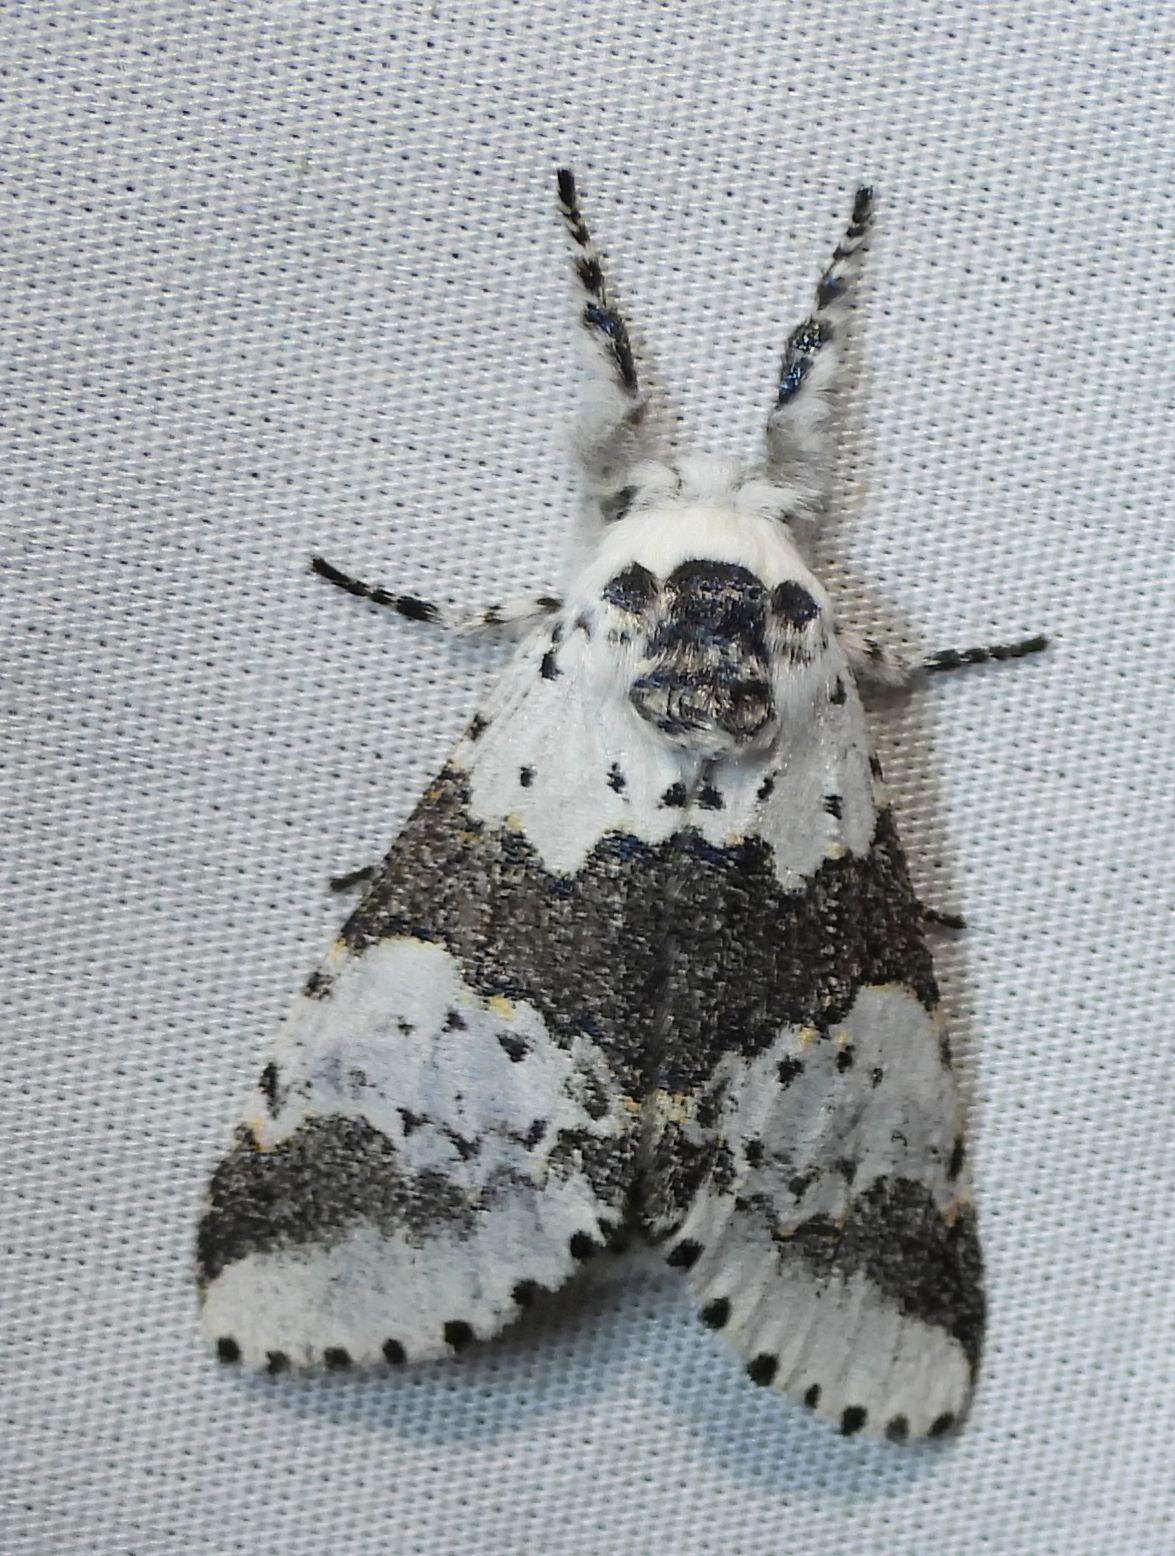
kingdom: Animalia
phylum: Arthropoda
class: Insecta
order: Lepidoptera
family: Notodontidae
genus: Furcula
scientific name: Furcula borealis
